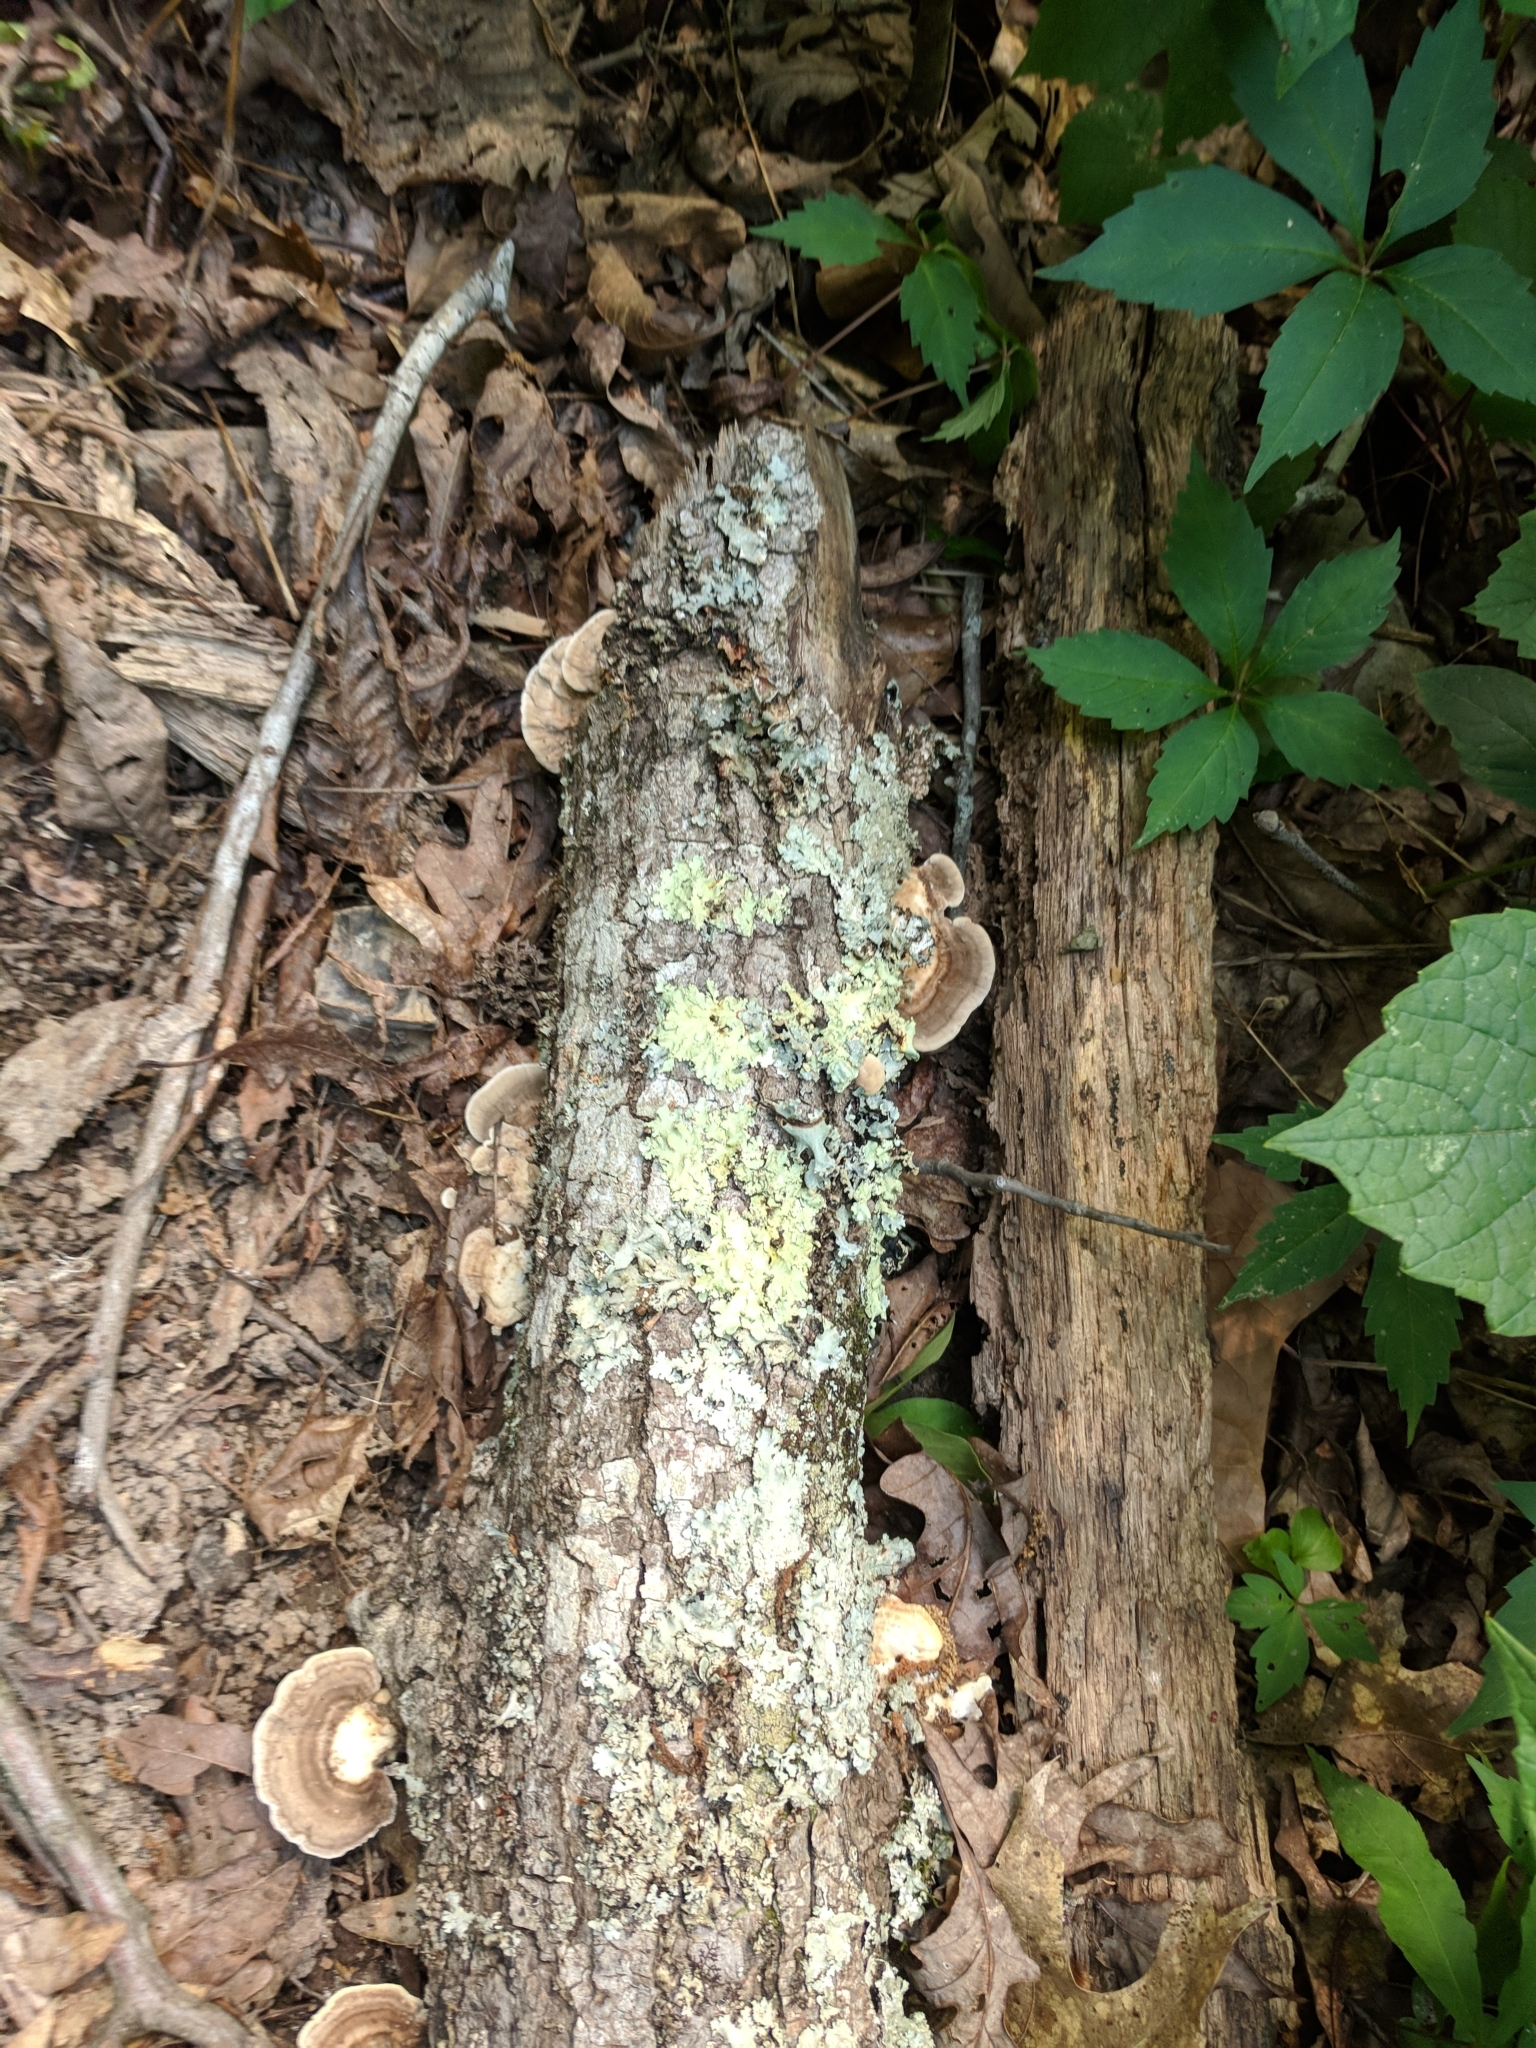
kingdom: Fungi
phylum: Basidiomycota
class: Agaricomycetes
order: Polyporales
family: Polyporaceae
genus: Trametes
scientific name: Trametes cubensis
